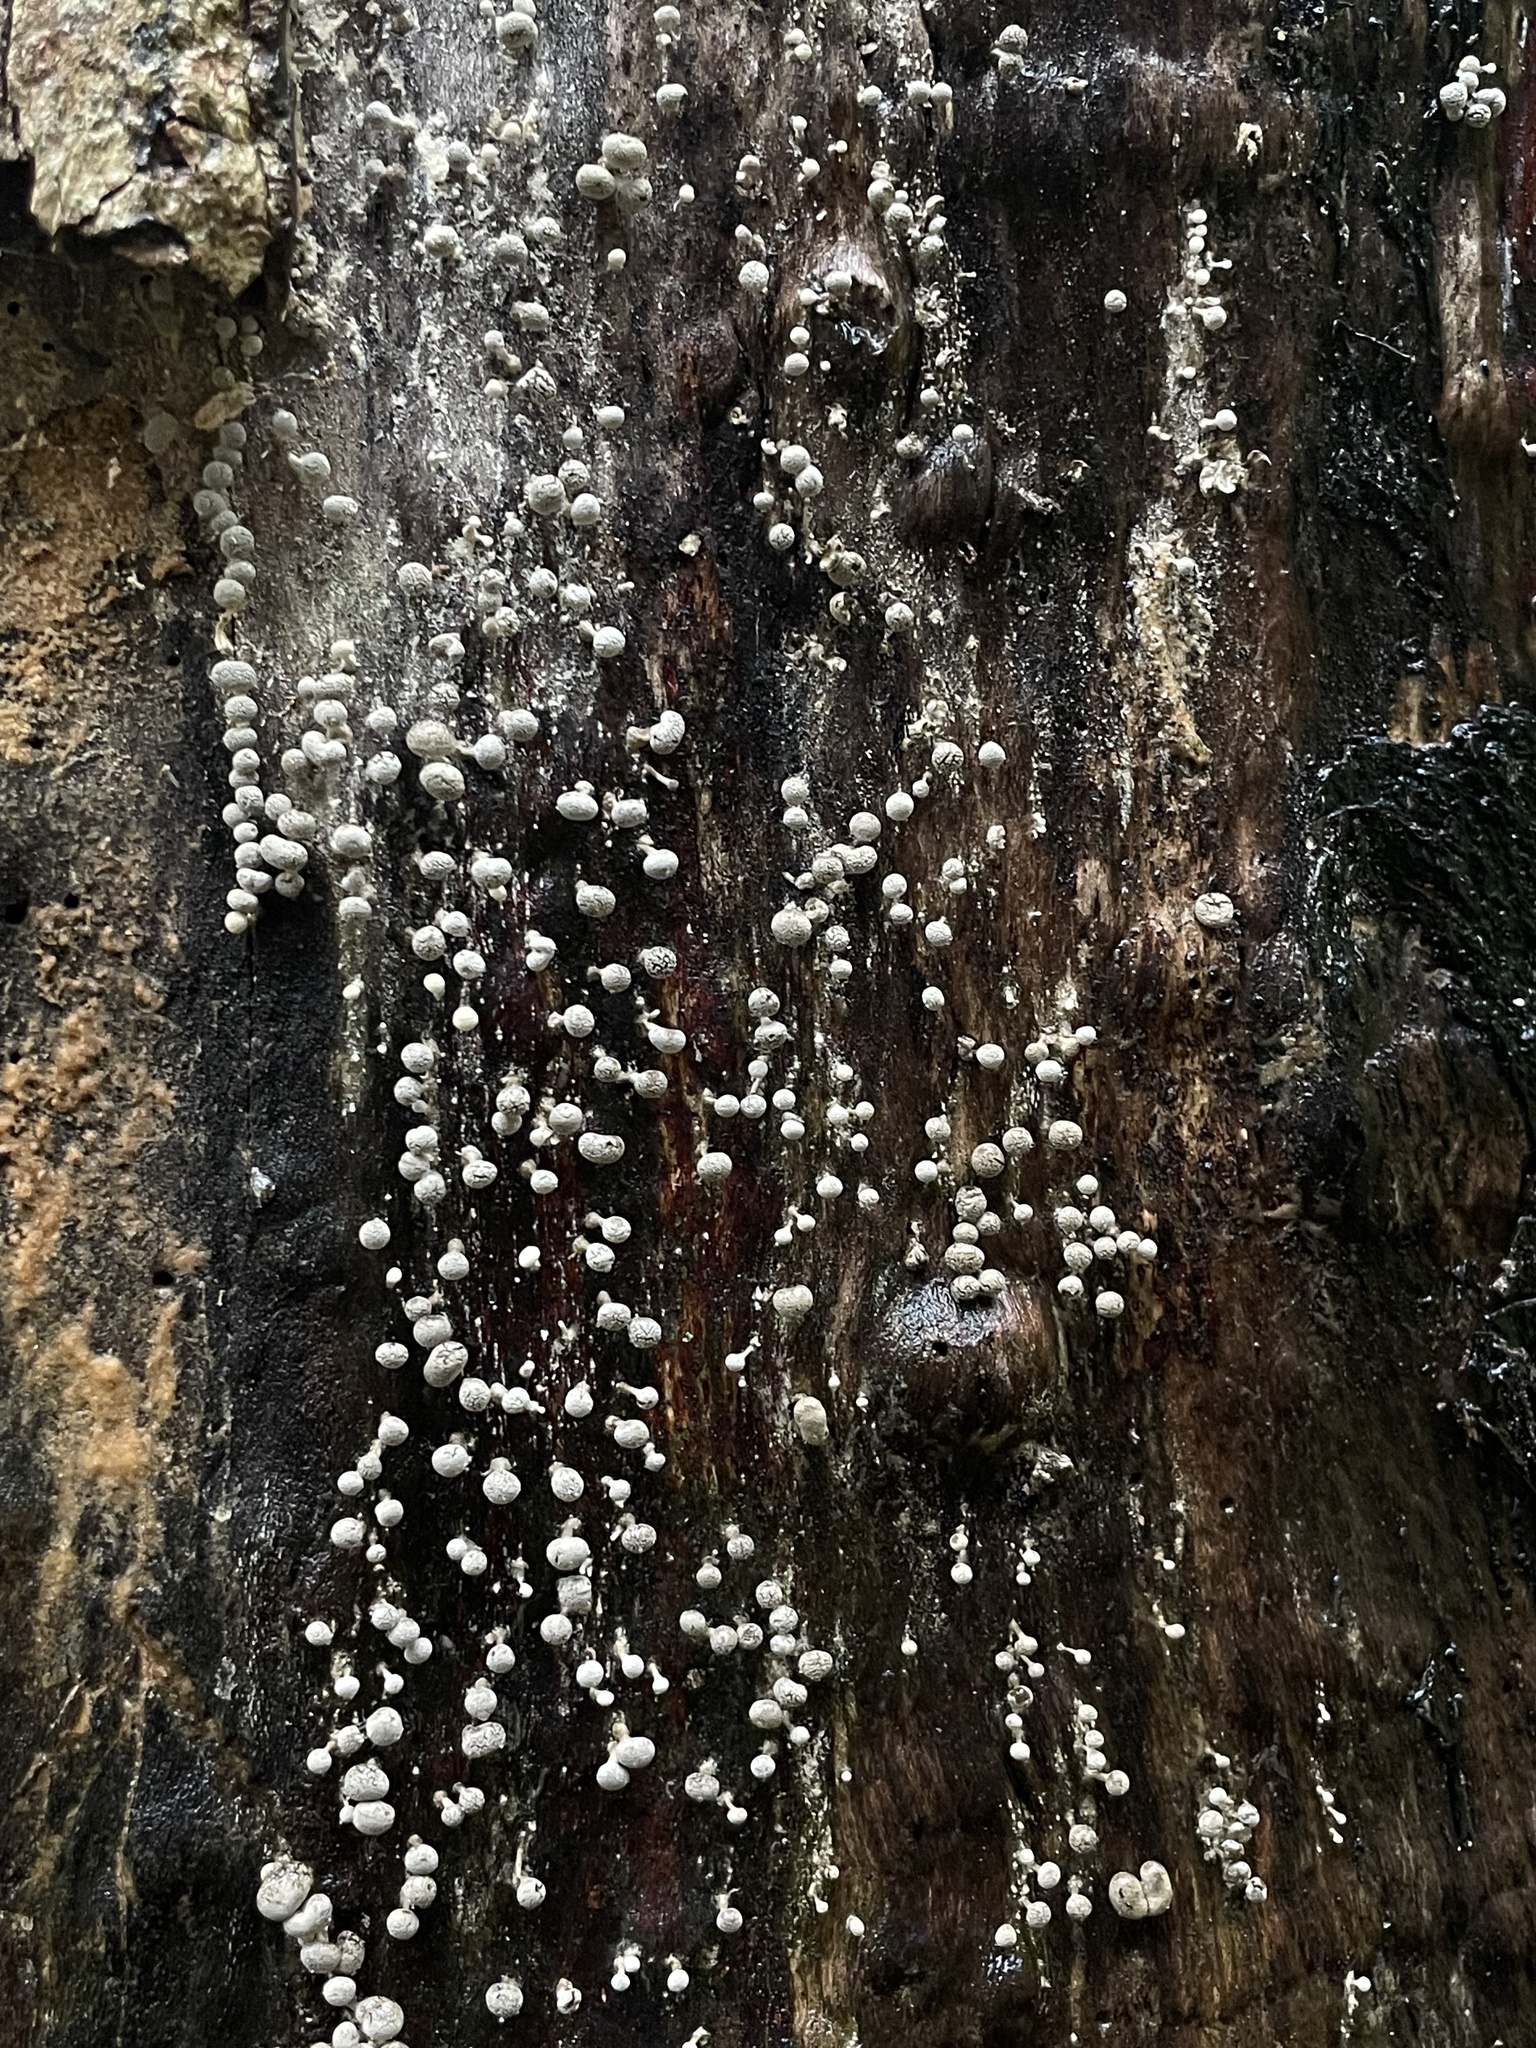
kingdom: Fungi
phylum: Basidiomycota
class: Atractiellomycetes
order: Atractiellales
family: Phleogenaceae
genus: Phleogena
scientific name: Phleogena faginea
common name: Fenugreek stalkball
